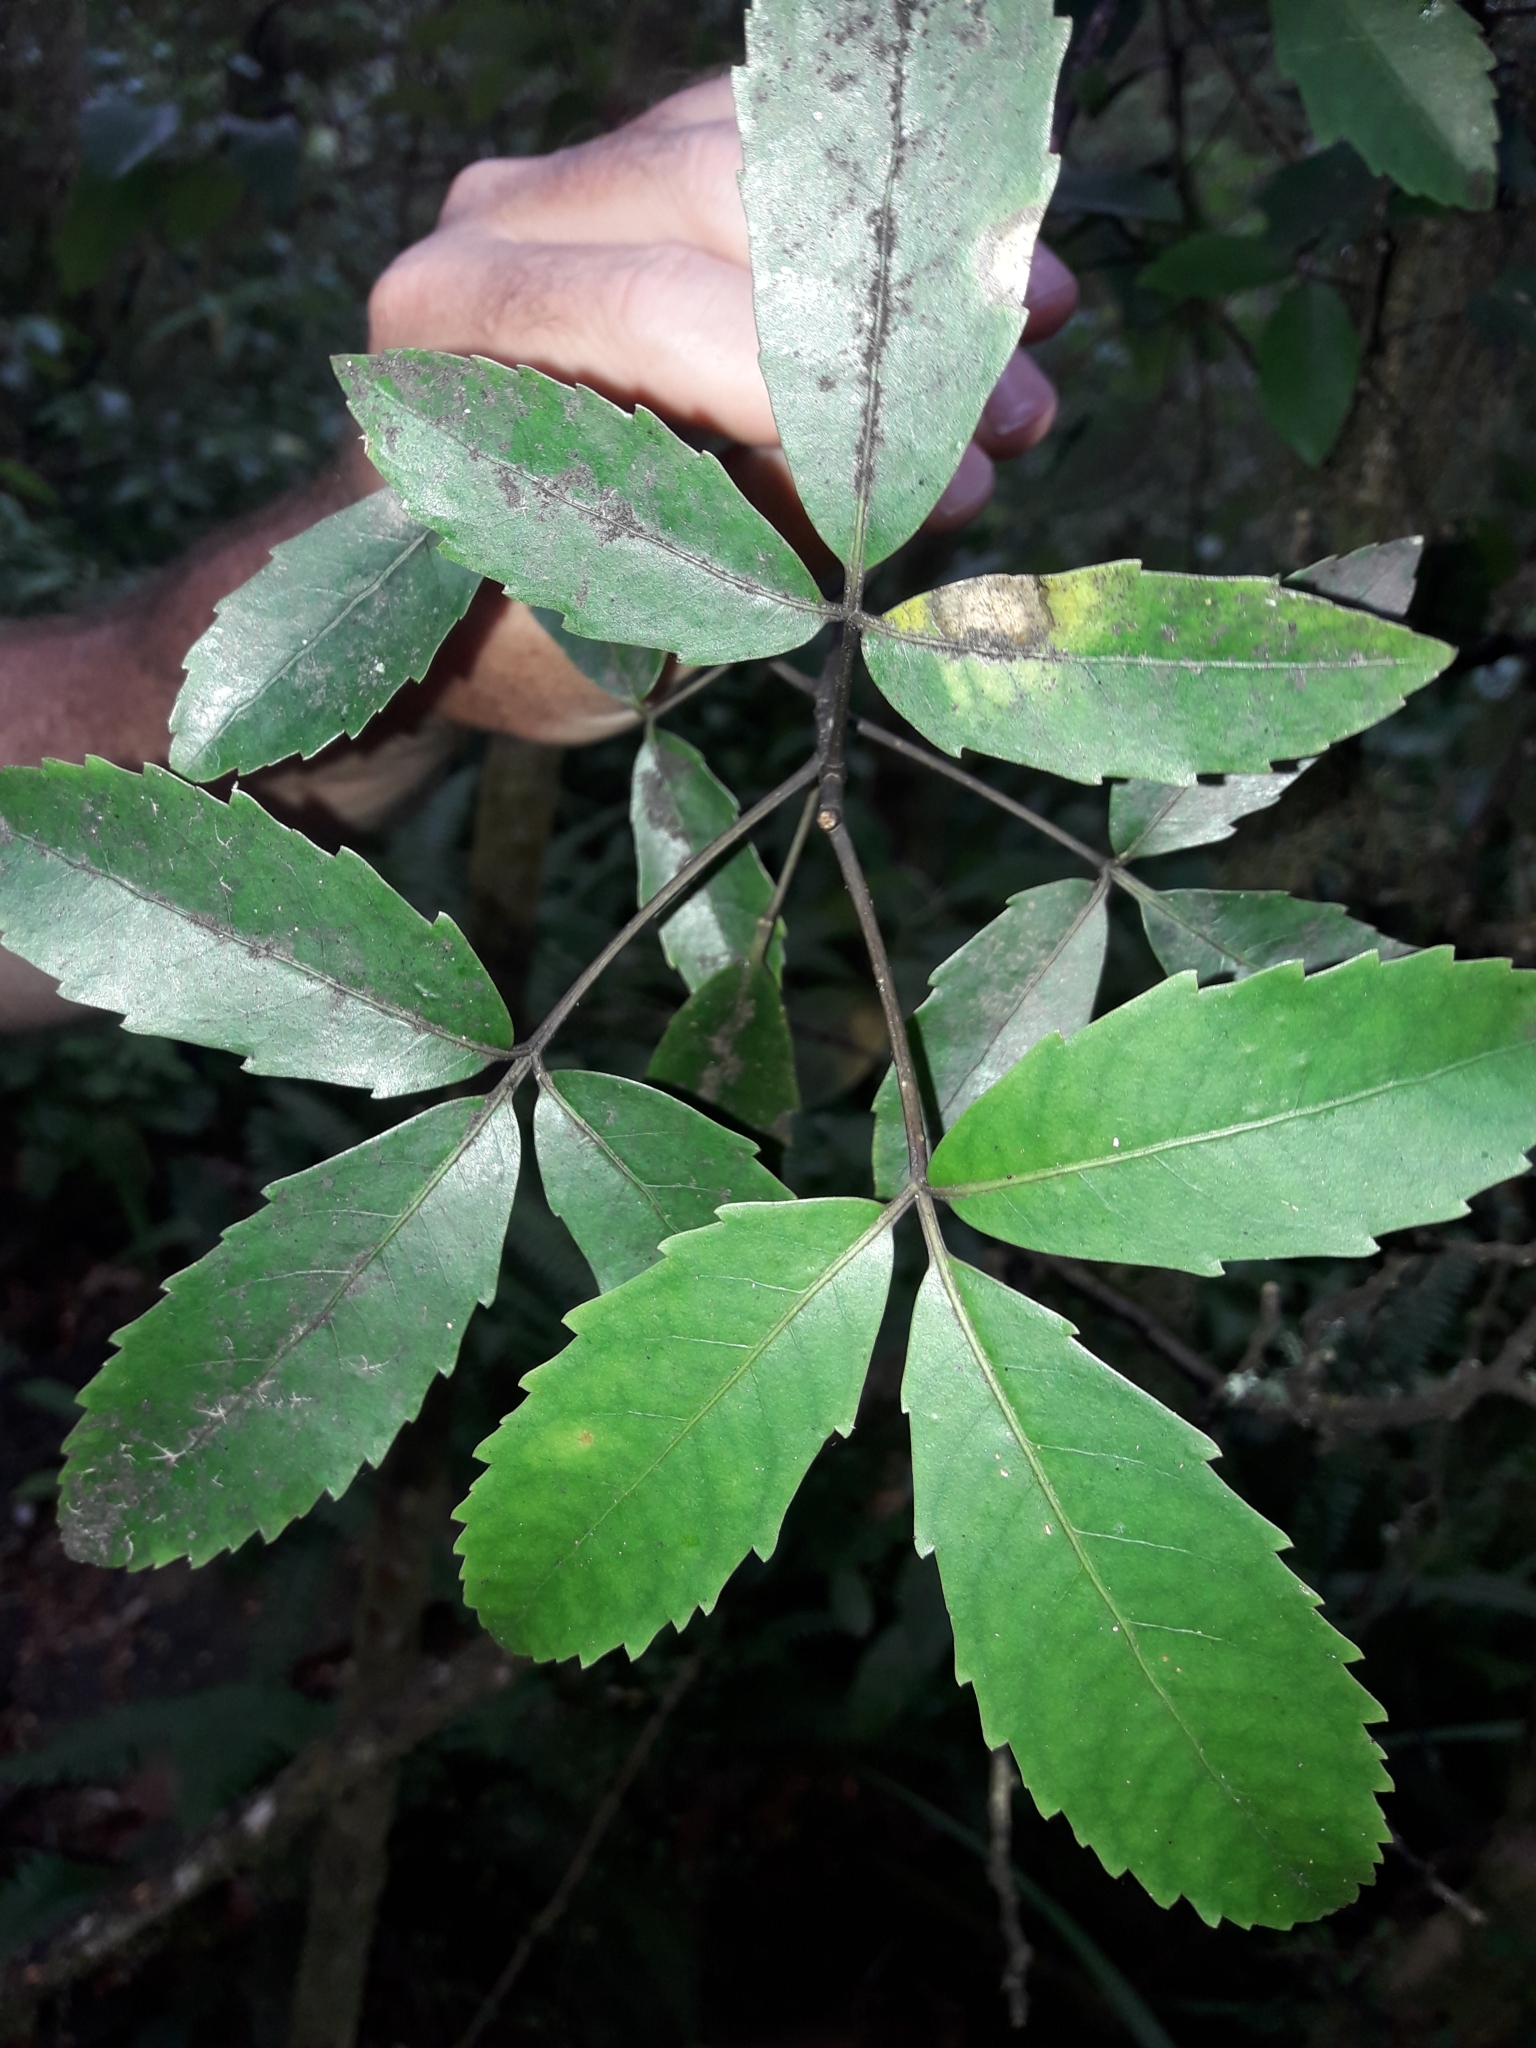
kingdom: Plantae
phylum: Tracheophyta
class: Magnoliopsida
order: Apiales
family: Araliaceae
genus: Neopanax
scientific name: Neopanax macintyrei
